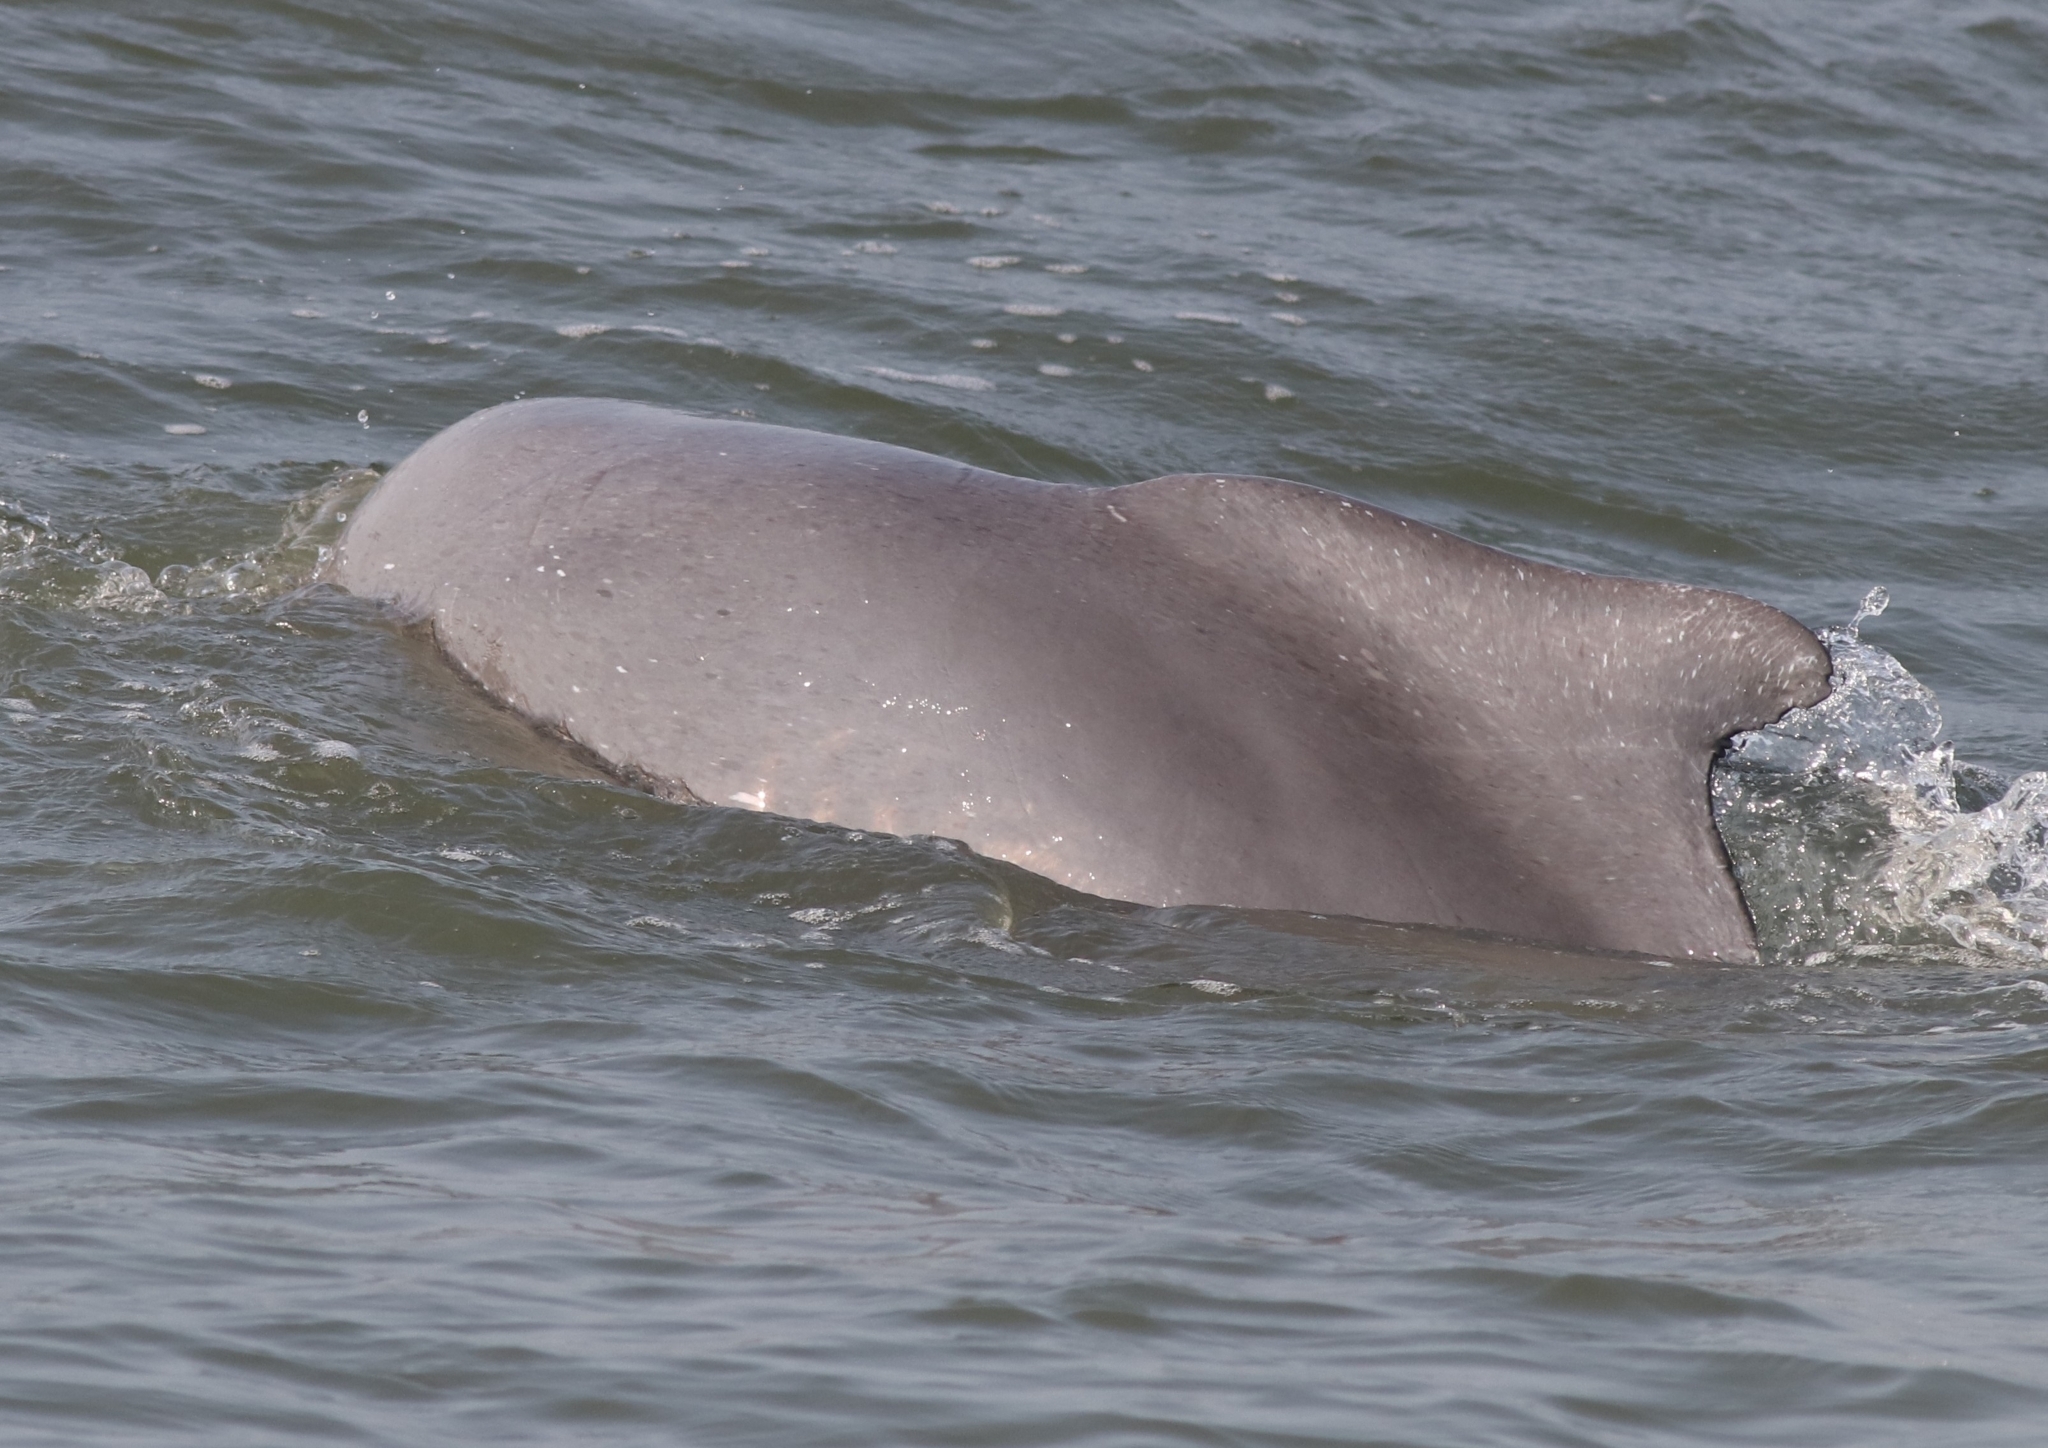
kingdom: Animalia
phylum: Chordata
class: Mammalia
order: Cetacea
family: Delphinidae
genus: Sousa
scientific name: Sousa plumbea
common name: Indian ocean humpback dolphin
